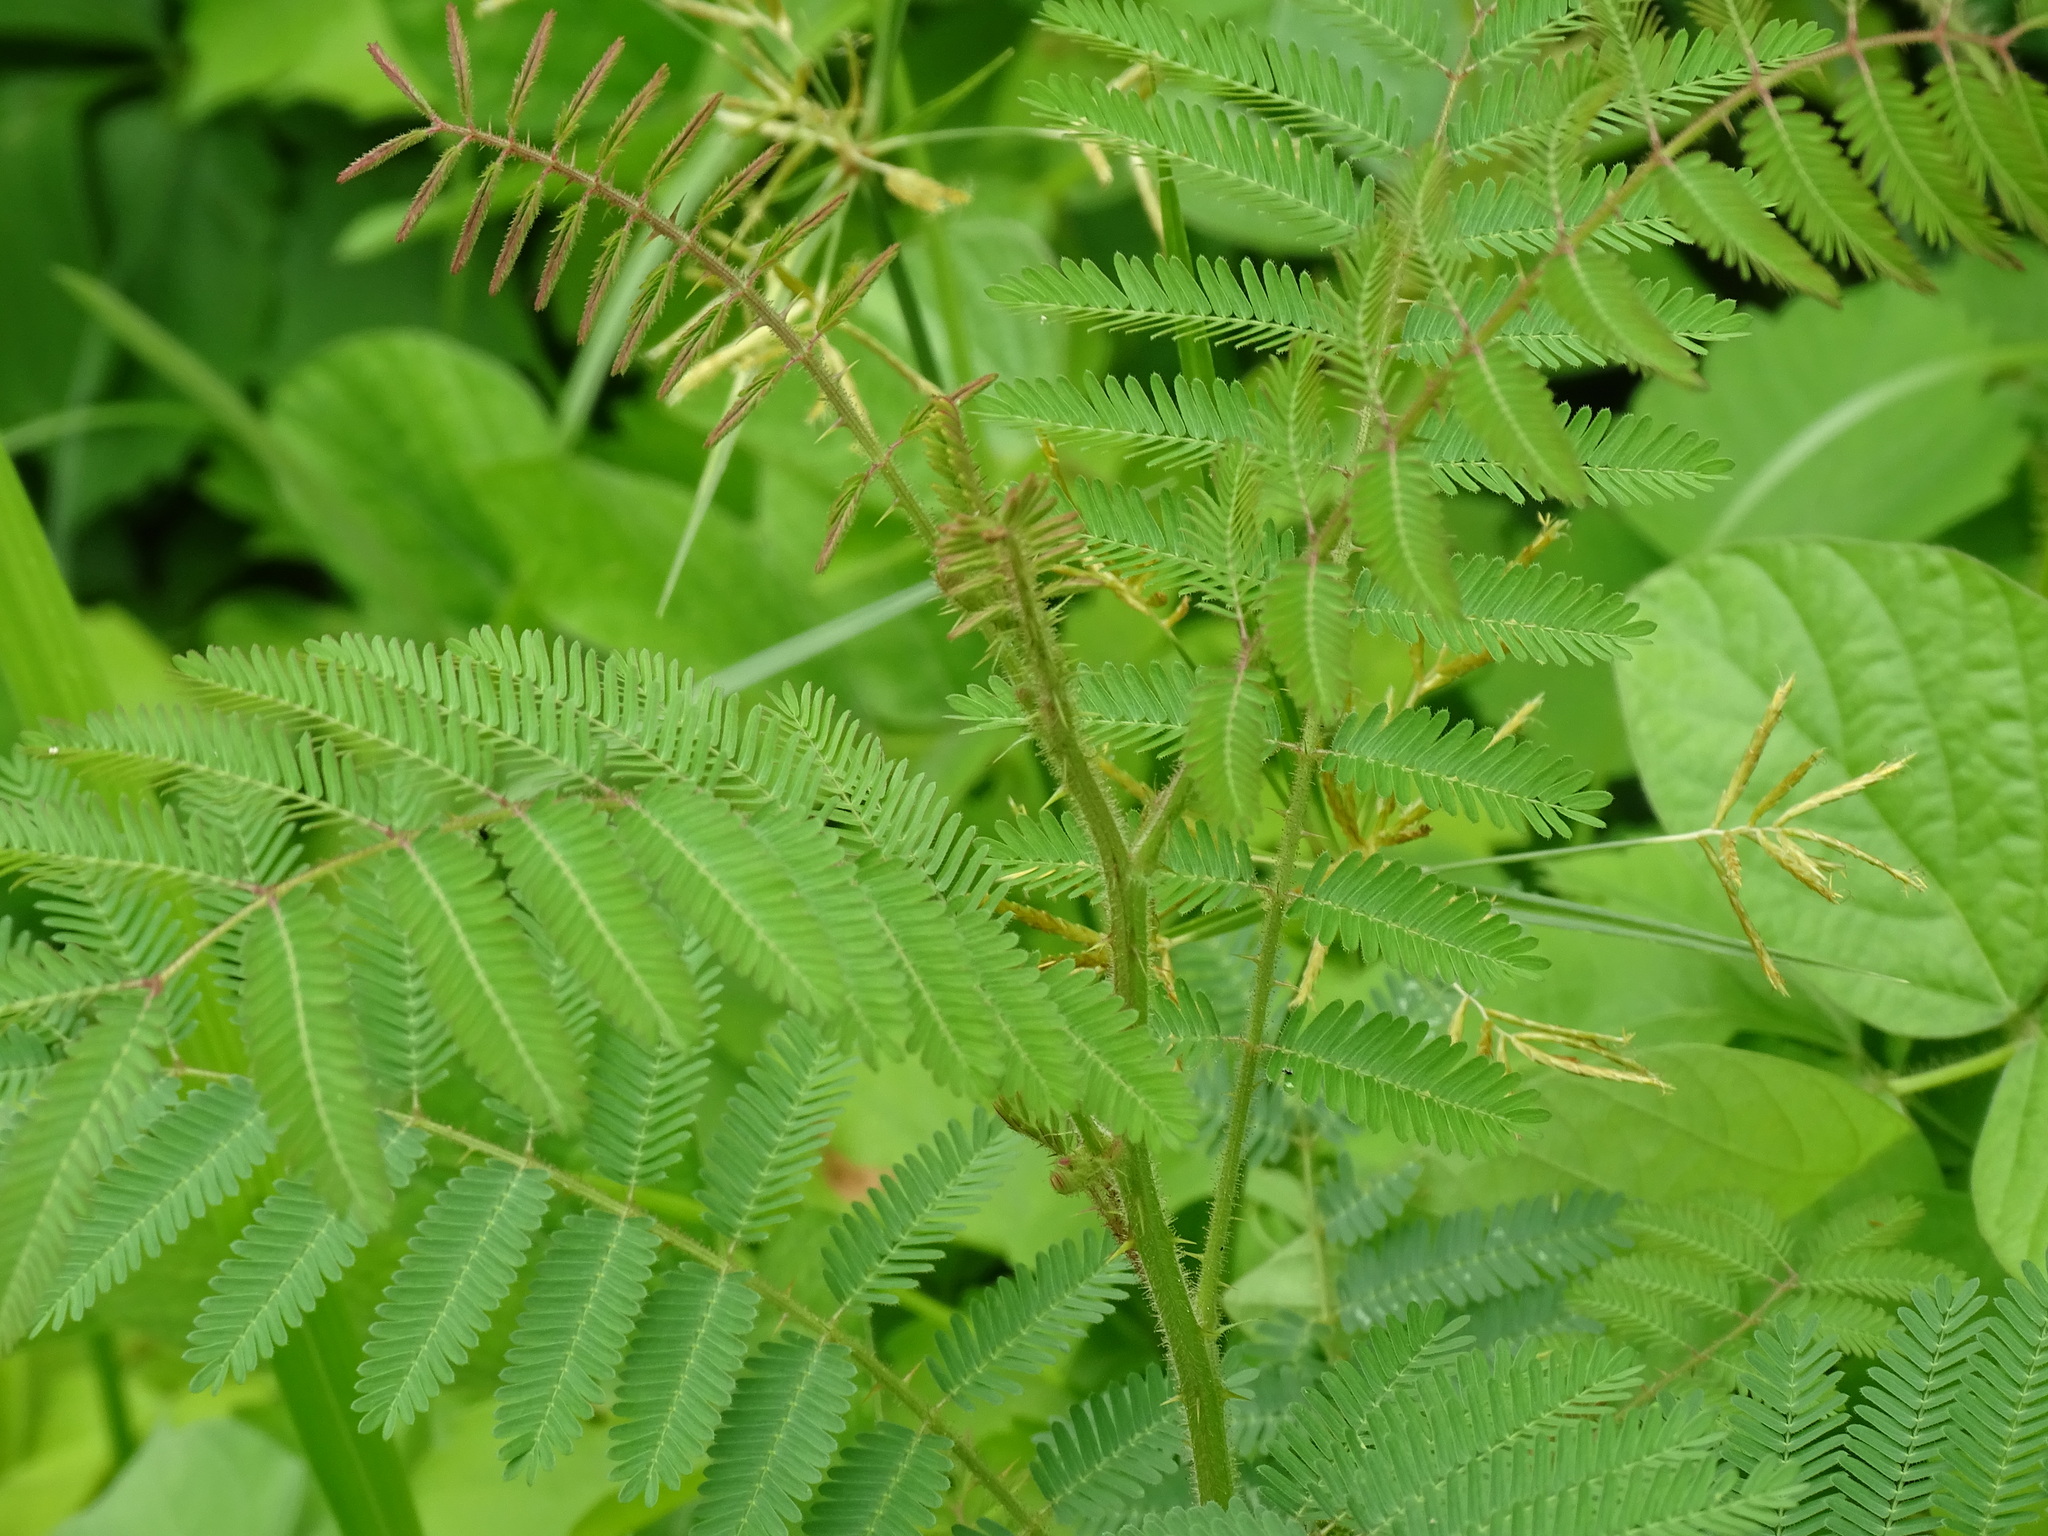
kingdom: Plantae
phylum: Tracheophyta
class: Magnoliopsida
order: Fabales
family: Fabaceae
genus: Mimosa
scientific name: Mimosa pigra
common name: Black mimosa
